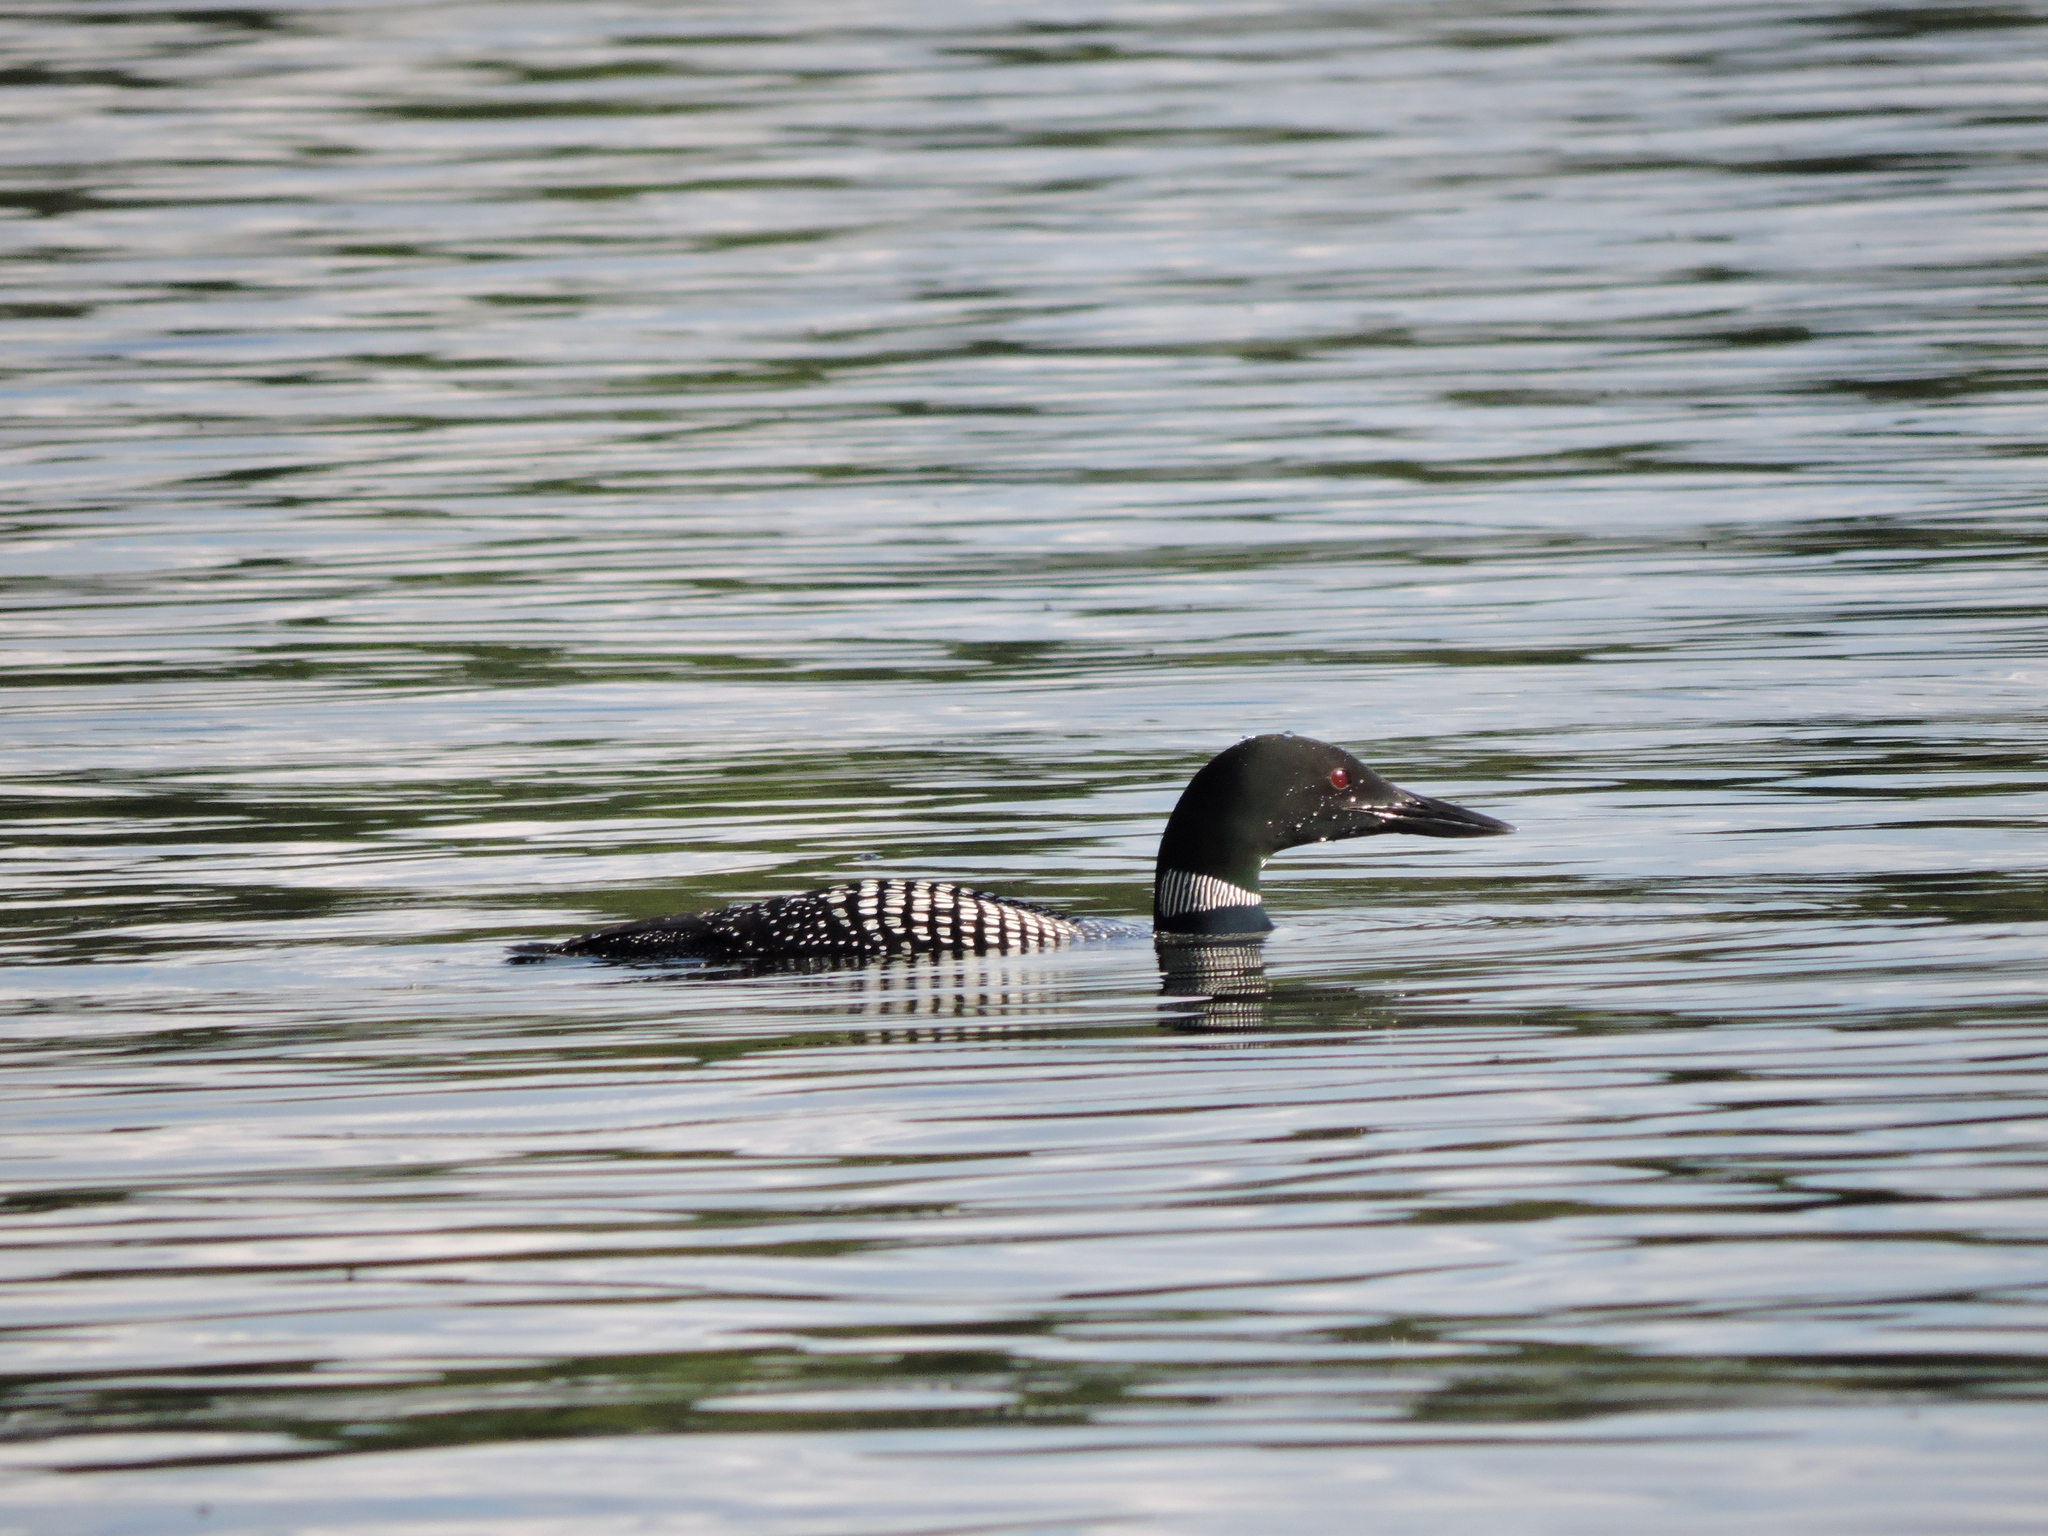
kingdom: Animalia
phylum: Chordata
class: Aves
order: Gaviiformes
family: Gaviidae
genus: Gavia
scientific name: Gavia immer
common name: Common loon
